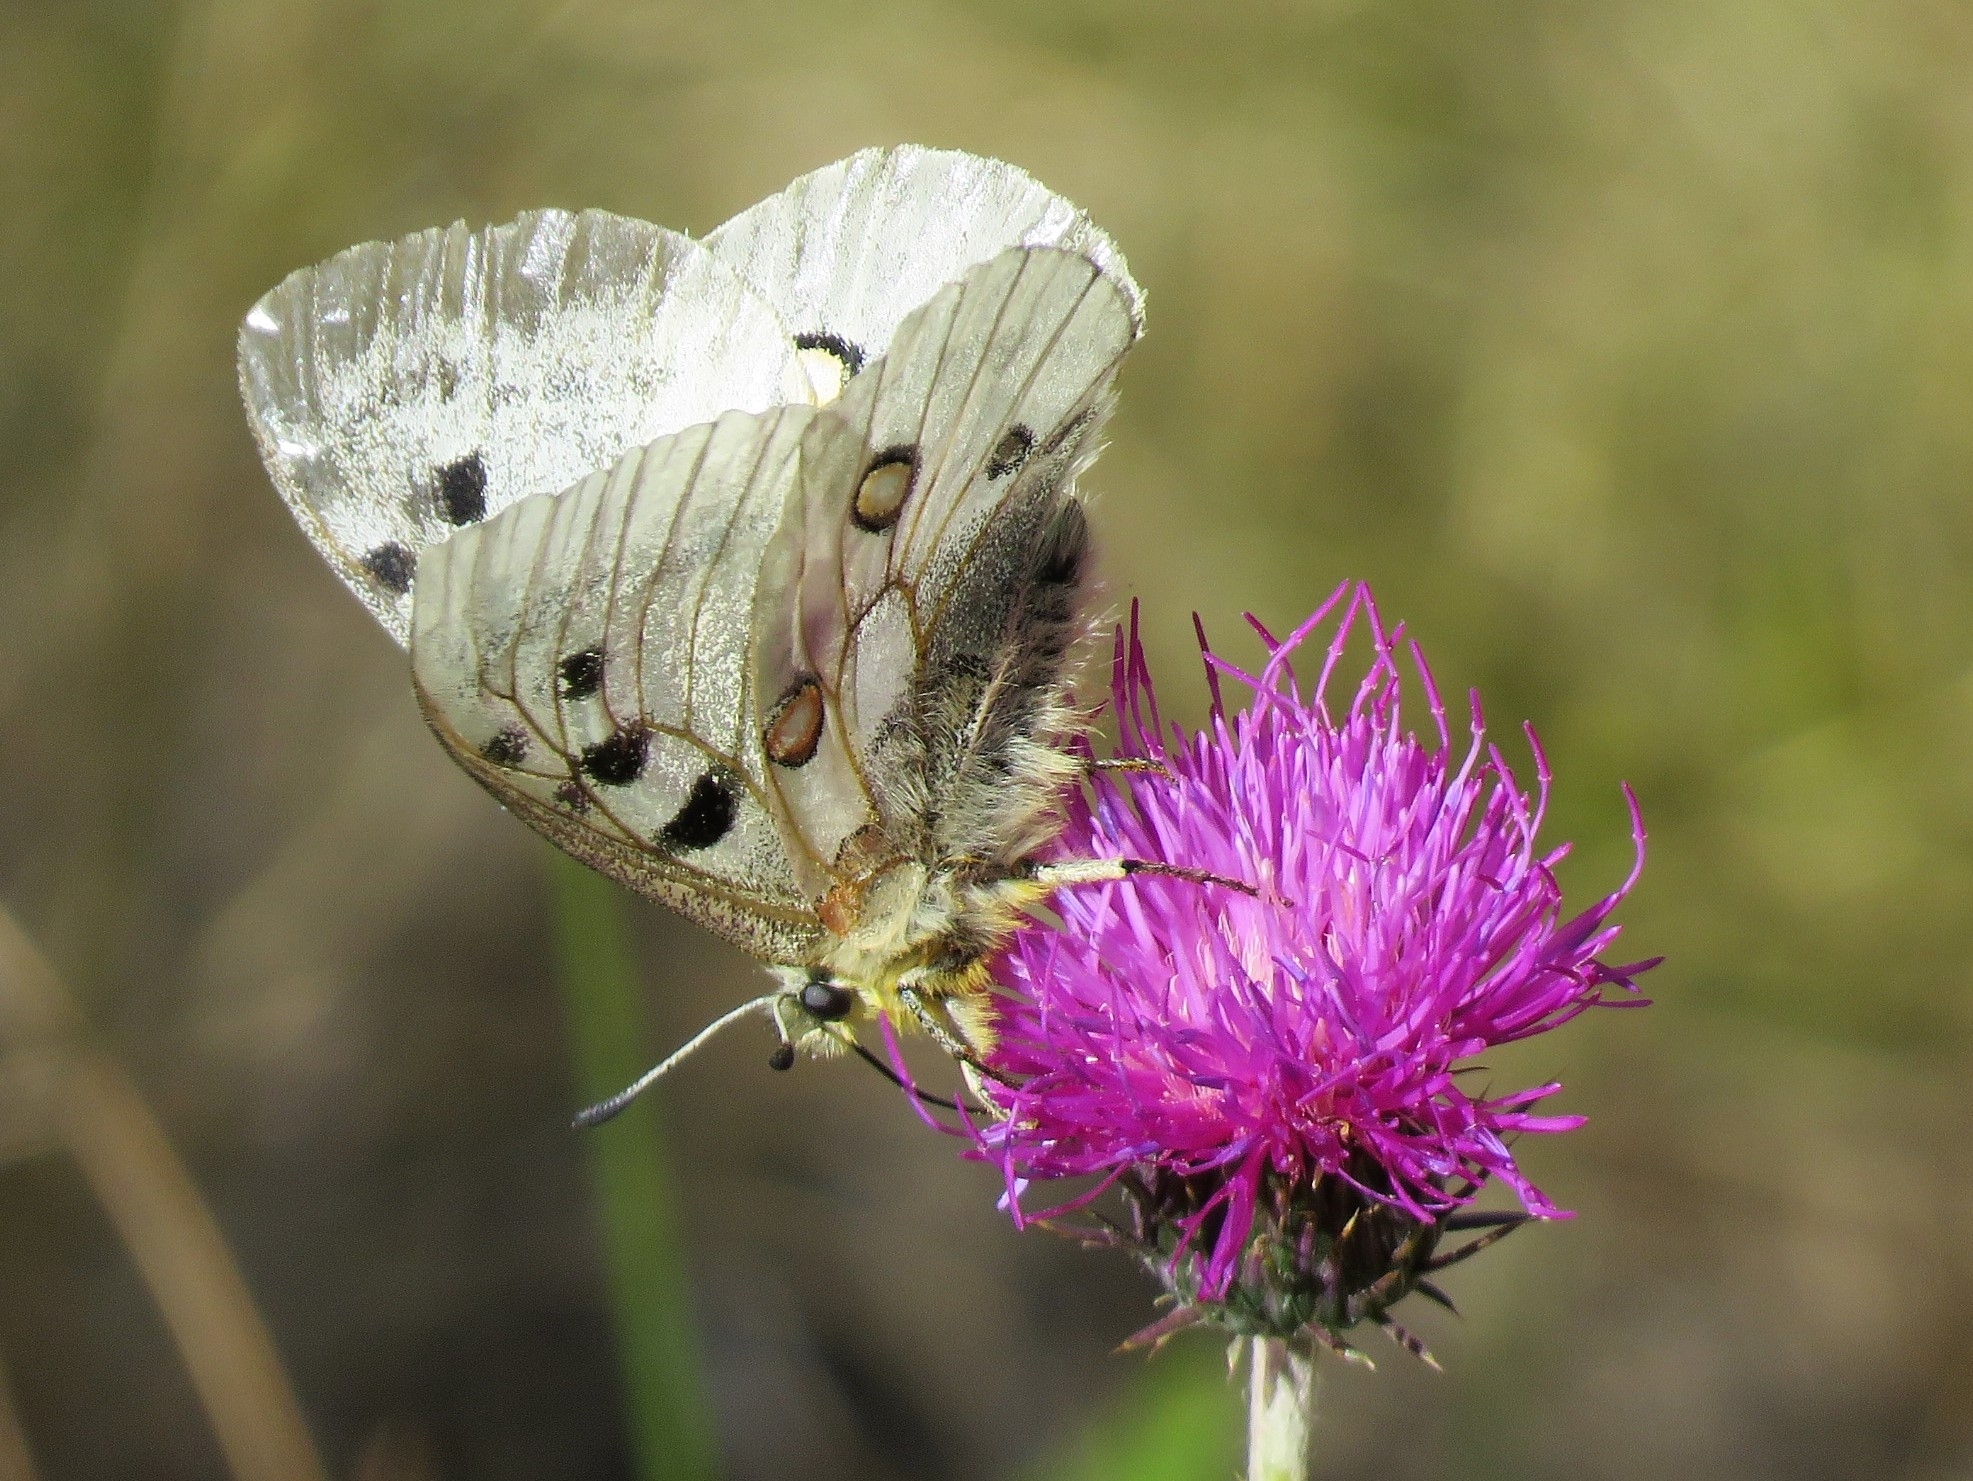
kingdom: Animalia
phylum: Arthropoda
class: Insecta
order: Lepidoptera
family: Papilionidae
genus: Parnassius
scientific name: Parnassius apollo
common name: Apollo
